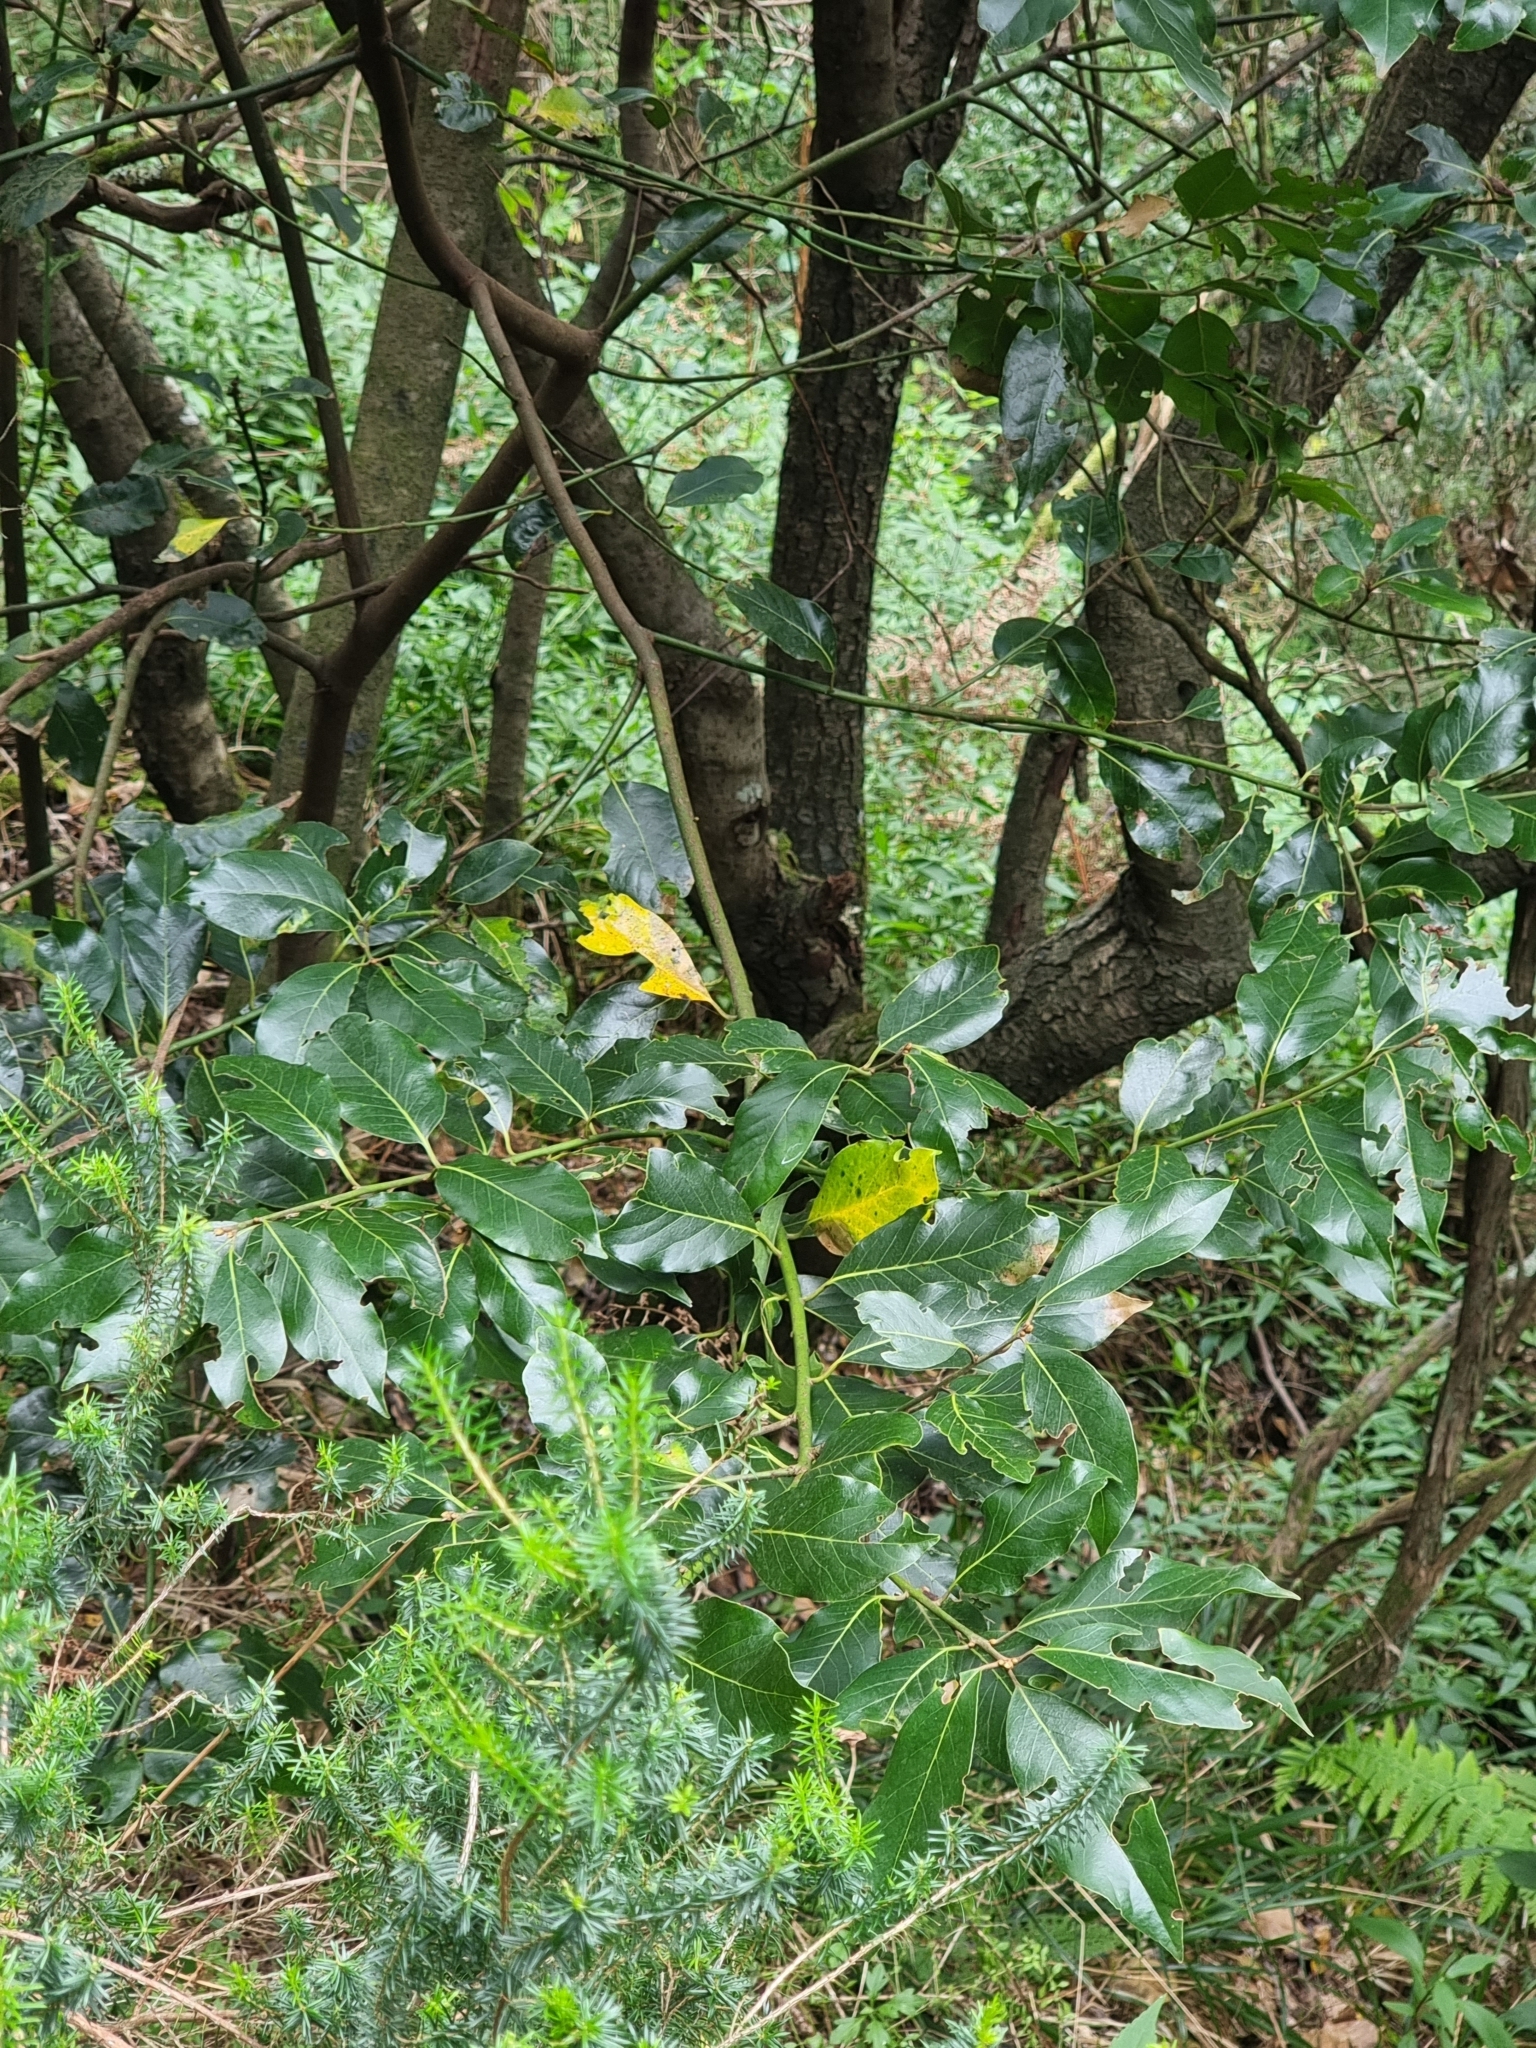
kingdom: Plantae
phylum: Tracheophyta
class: Magnoliopsida
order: Laurales
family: Lauraceae
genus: Laurus
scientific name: Laurus novocanariensis
